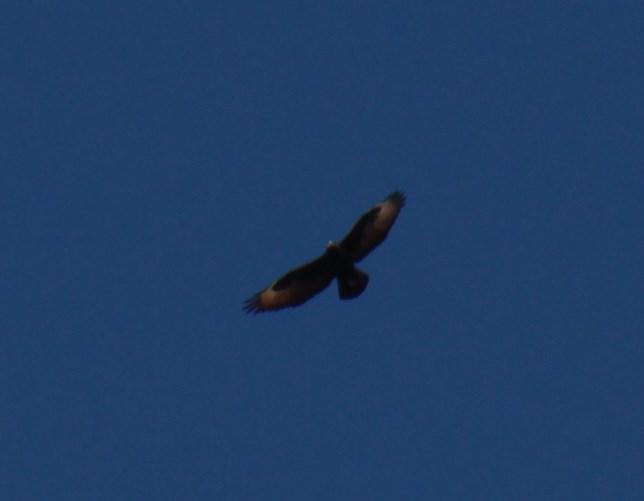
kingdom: Animalia
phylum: Chordata
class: Aves
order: Accipitriformes
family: Accipitridae
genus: Aquila
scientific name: Aquila verreauxii
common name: Verreaux's eagle
